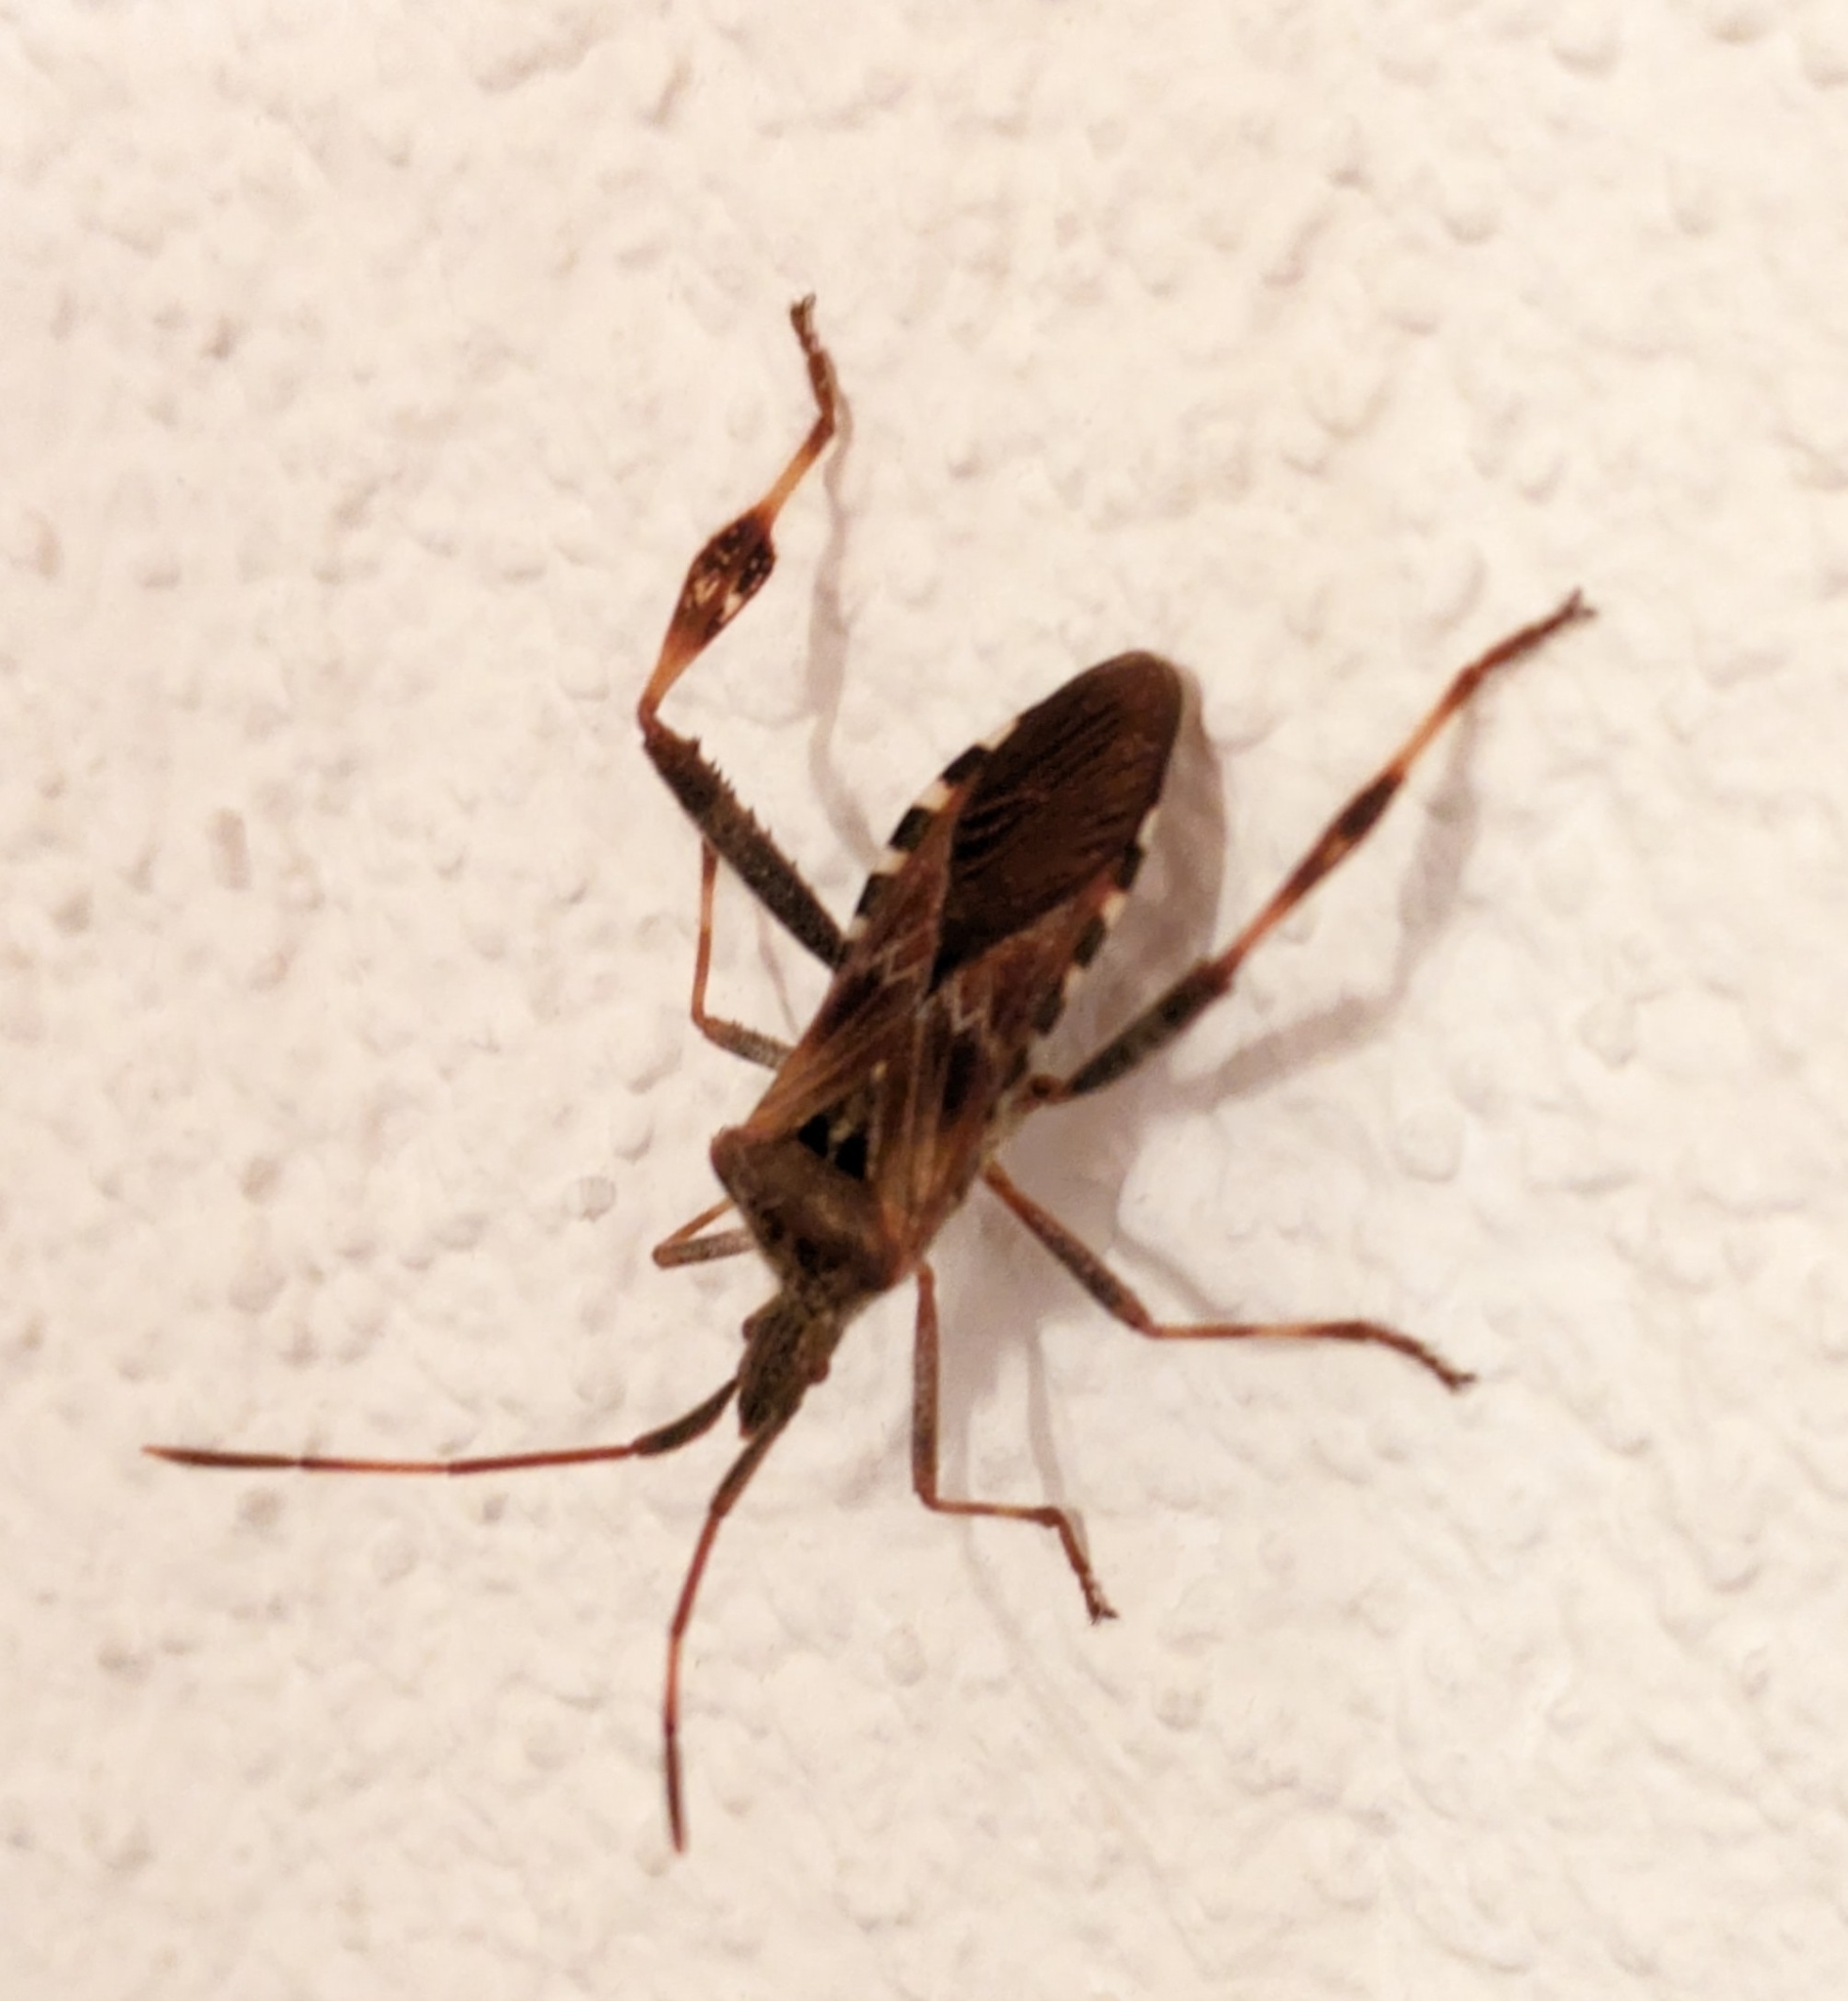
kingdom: Animalia
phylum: Arthropoda
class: Insecta
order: Hemiptera
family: Coreidae
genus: Leptoglossus
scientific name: Leptoglossus occidentalis
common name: Western conifer-seed bug
